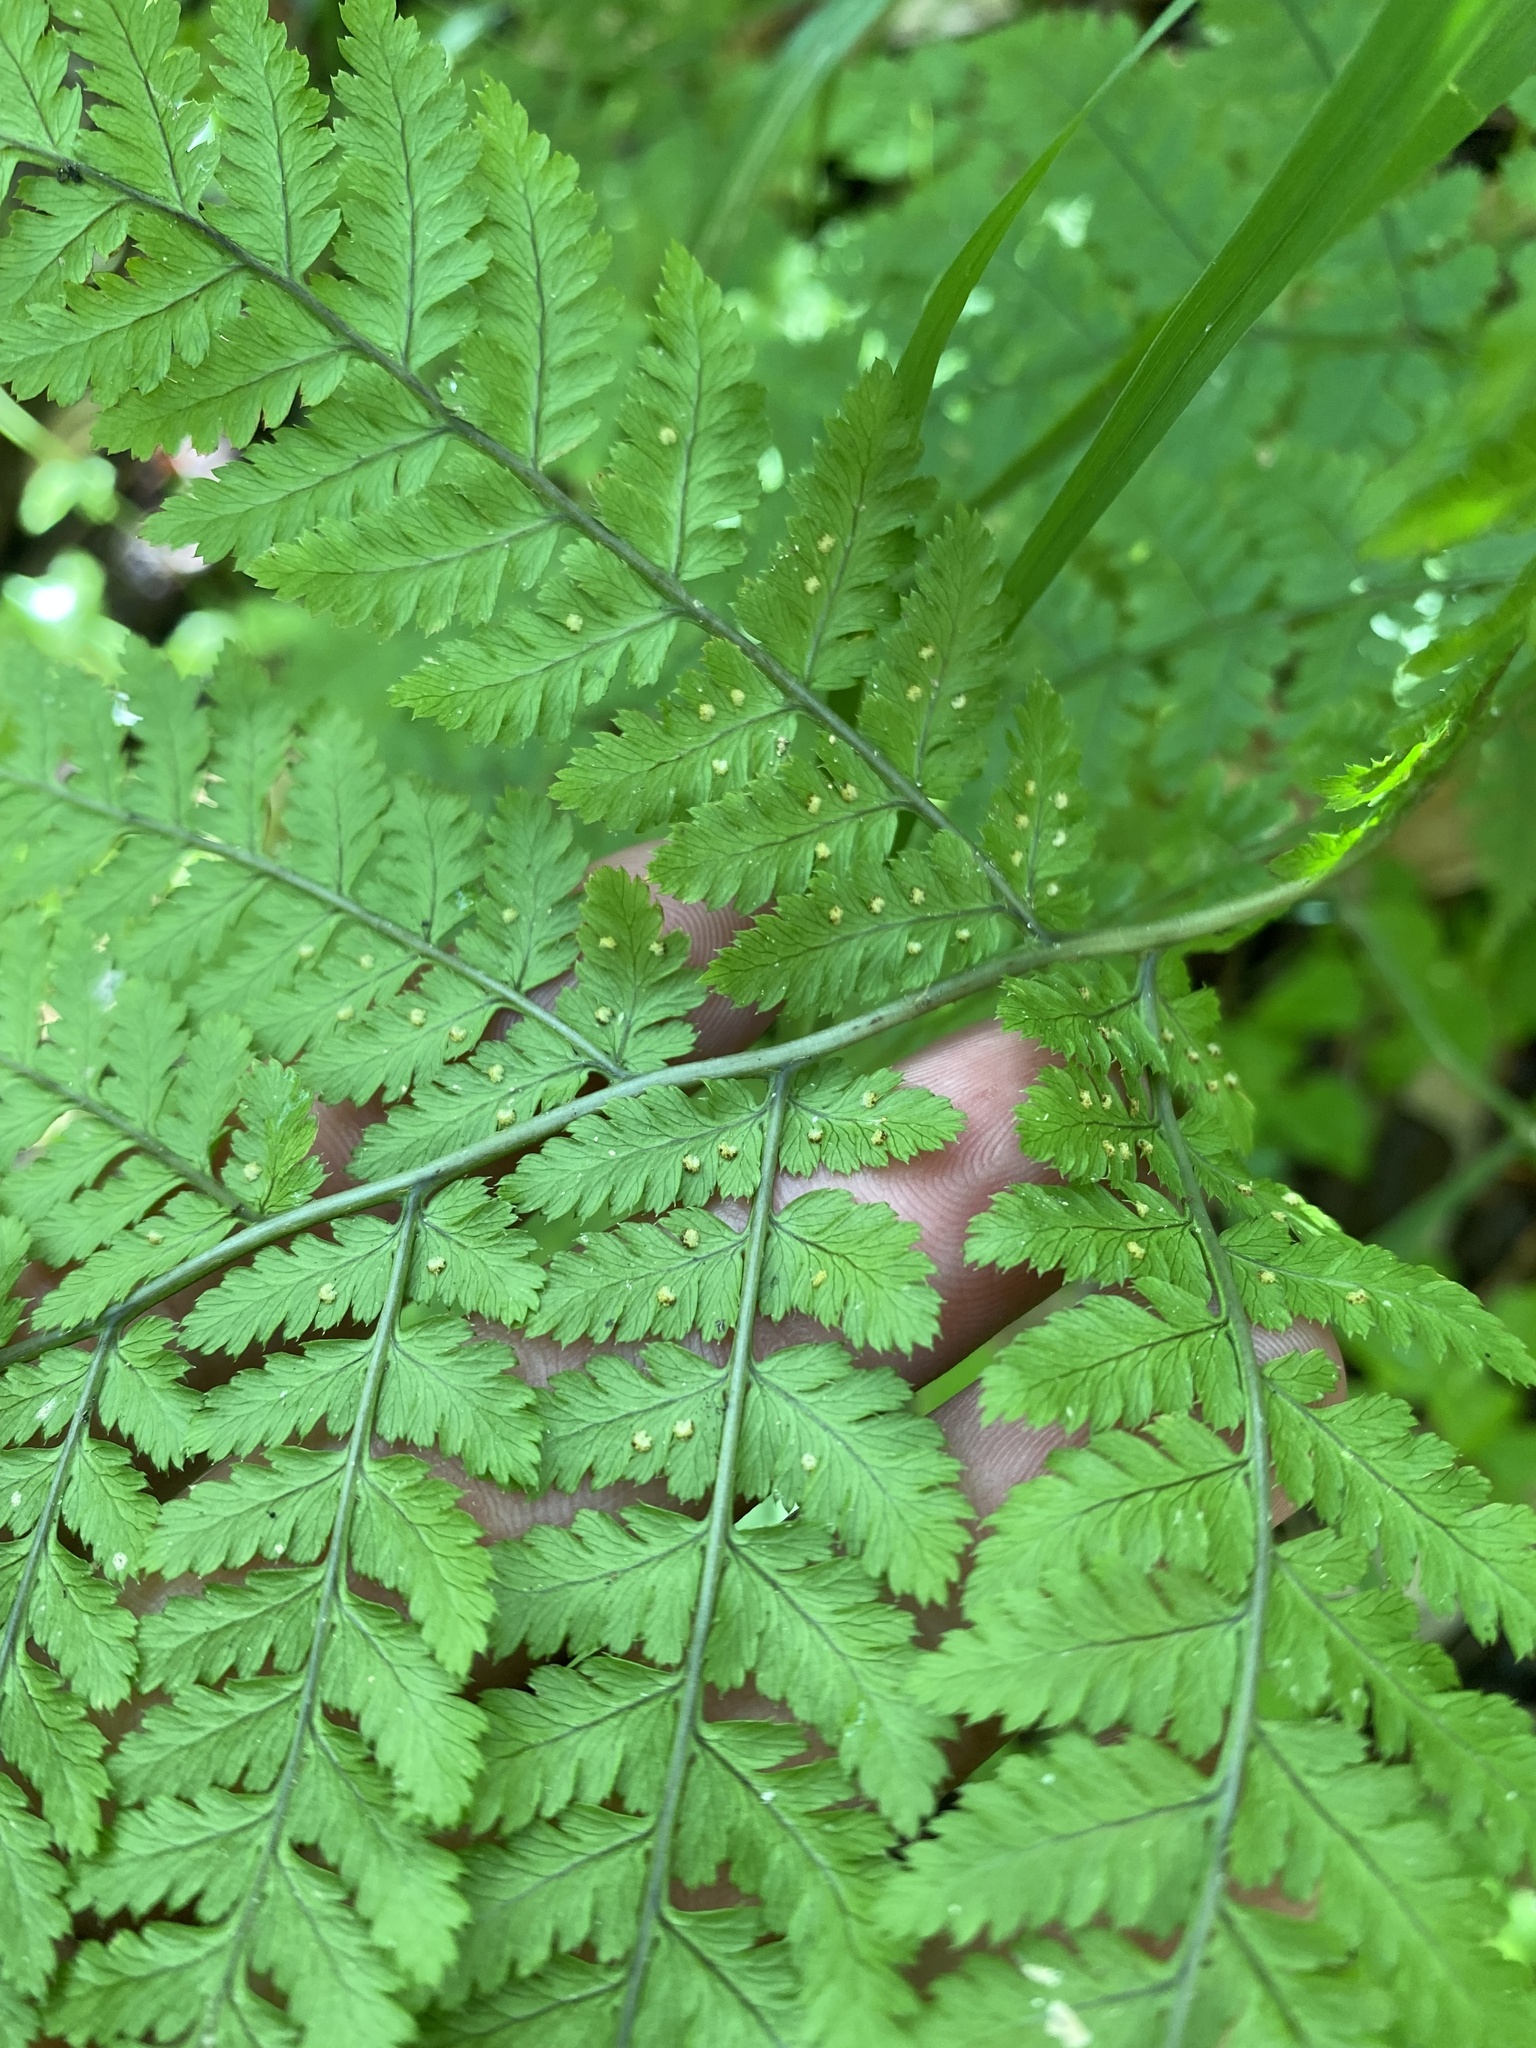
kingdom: Plantae
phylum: Tracheophyta
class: Polypodiopsida
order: Polypodiales
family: Dryopteridaceae
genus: Dryopteris
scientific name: Dryopteris expansa
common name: Northern buckler fern
